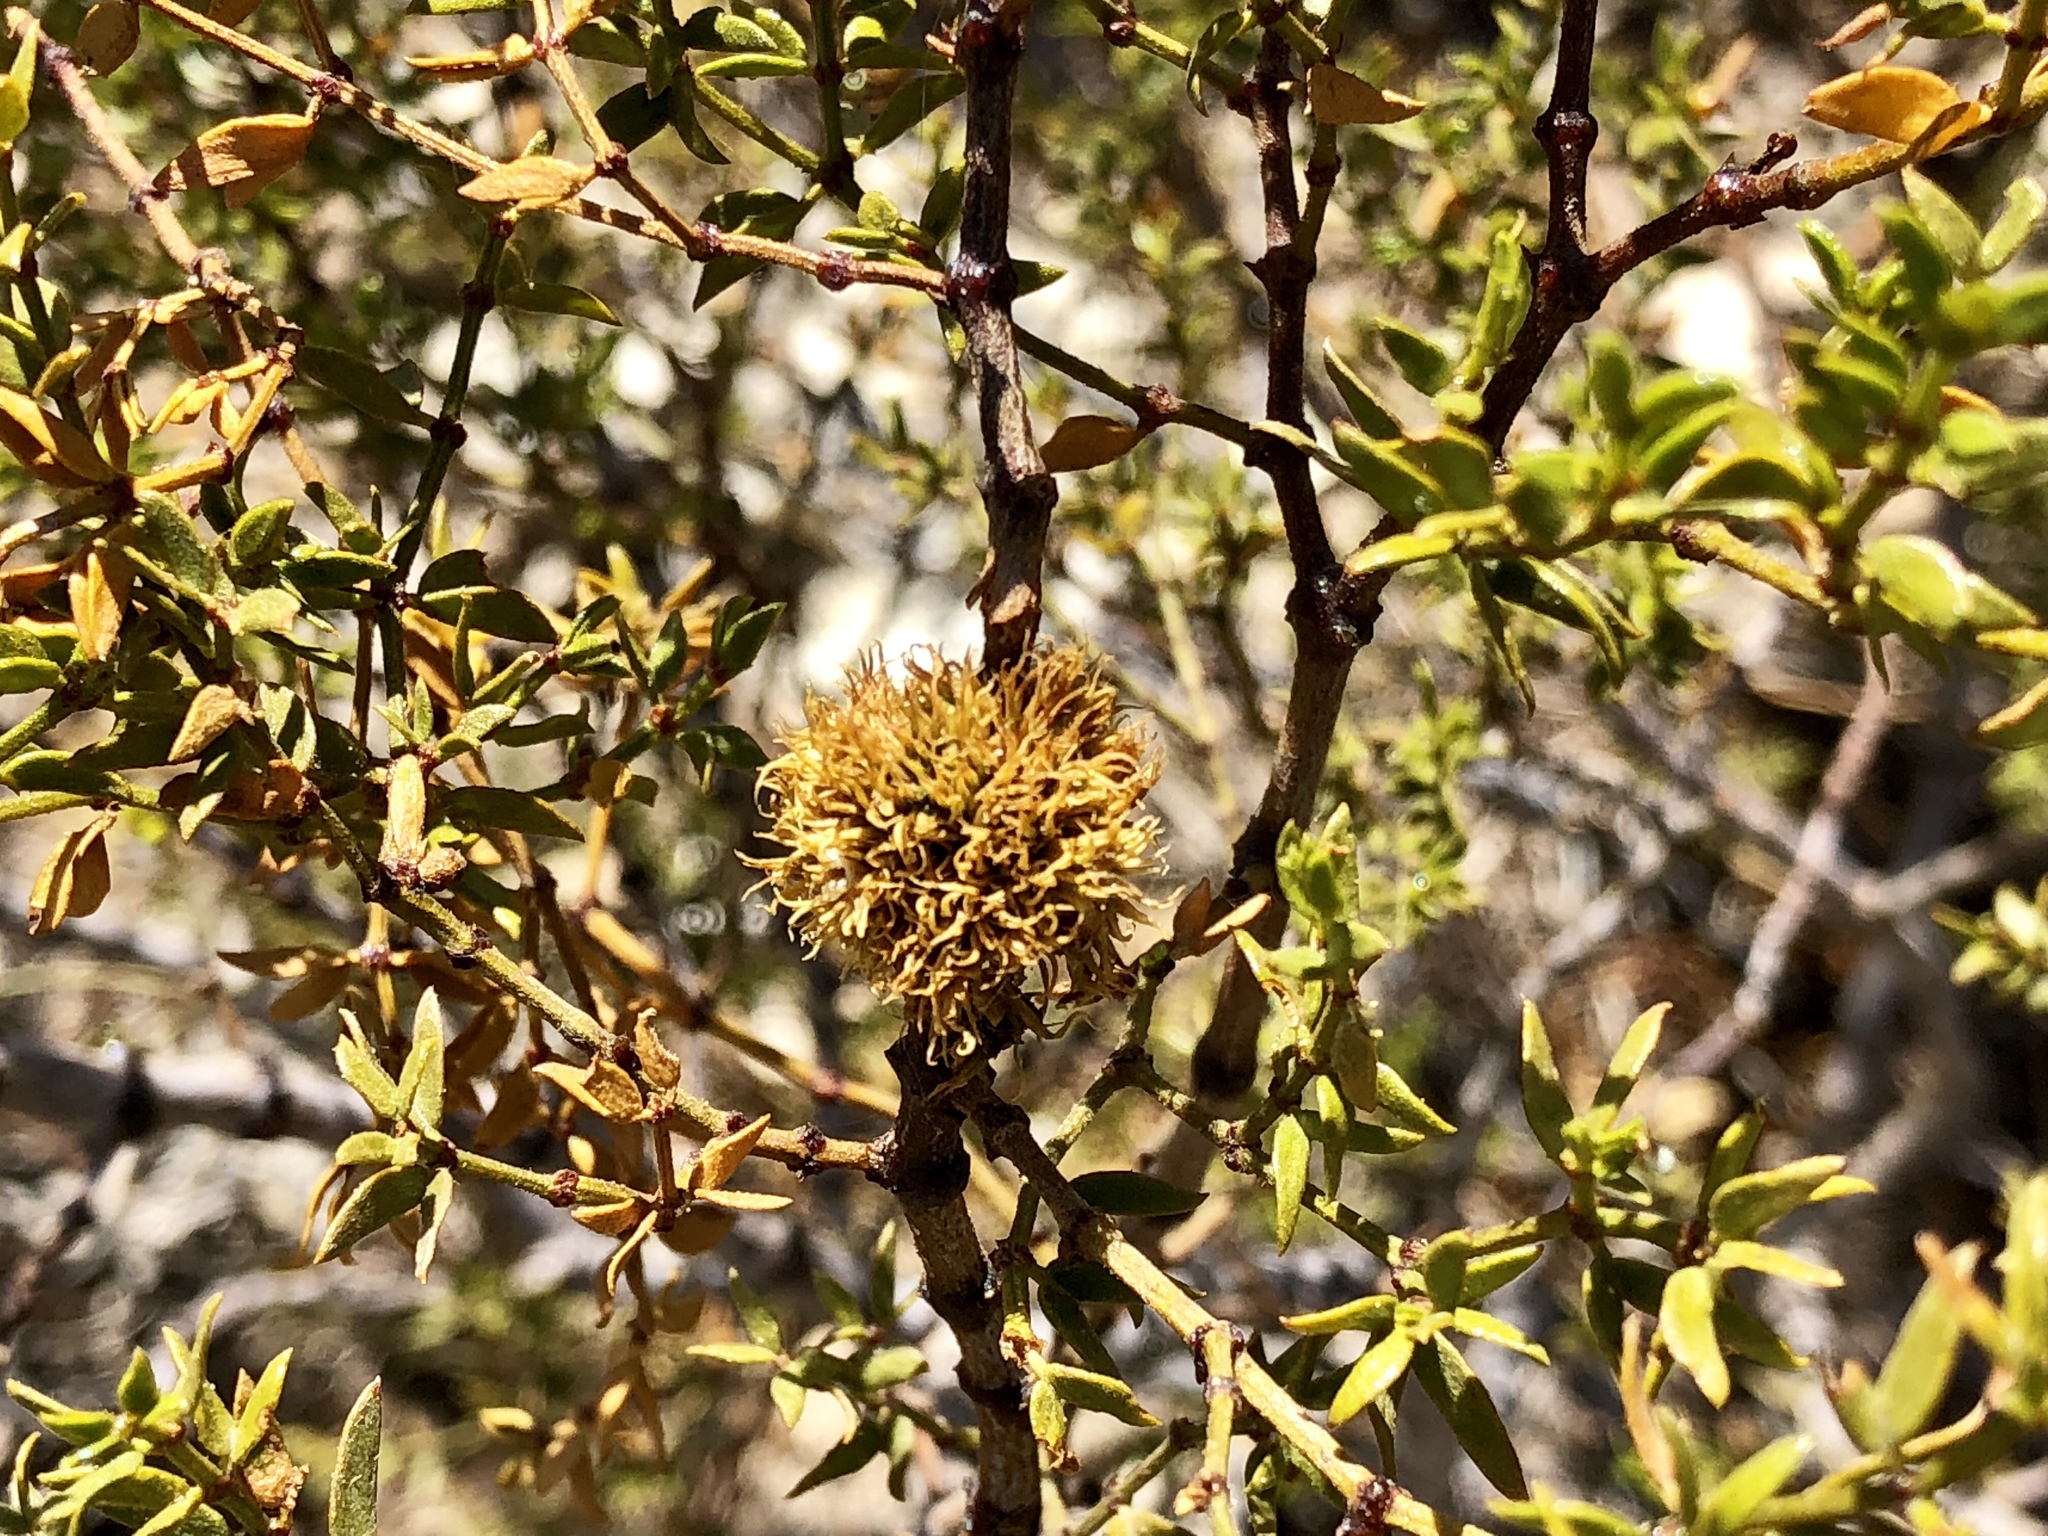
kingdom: Animalia
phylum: Arthropoda
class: Insecta
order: Diptera
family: Cecidomyiidae
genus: Asphondylia
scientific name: Asphondylia auripila
